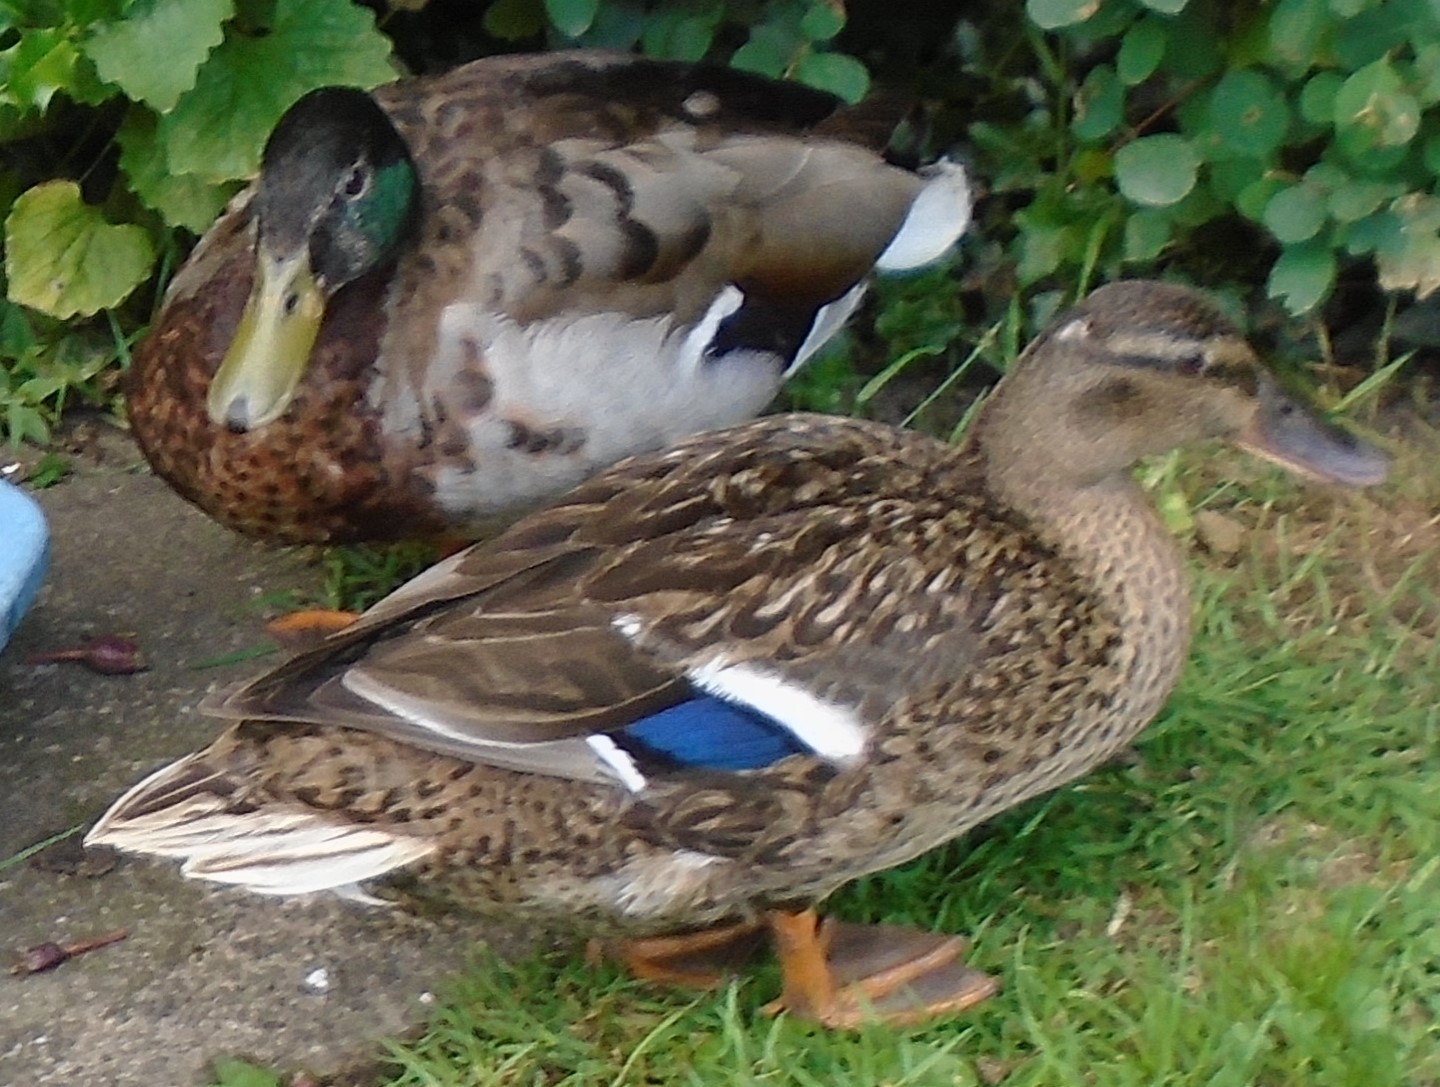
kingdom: Animalia
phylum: Chordata
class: Aves
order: Anseriformes
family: Anatidae
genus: Anas
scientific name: Anas platyrhynchos
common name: Mallard
